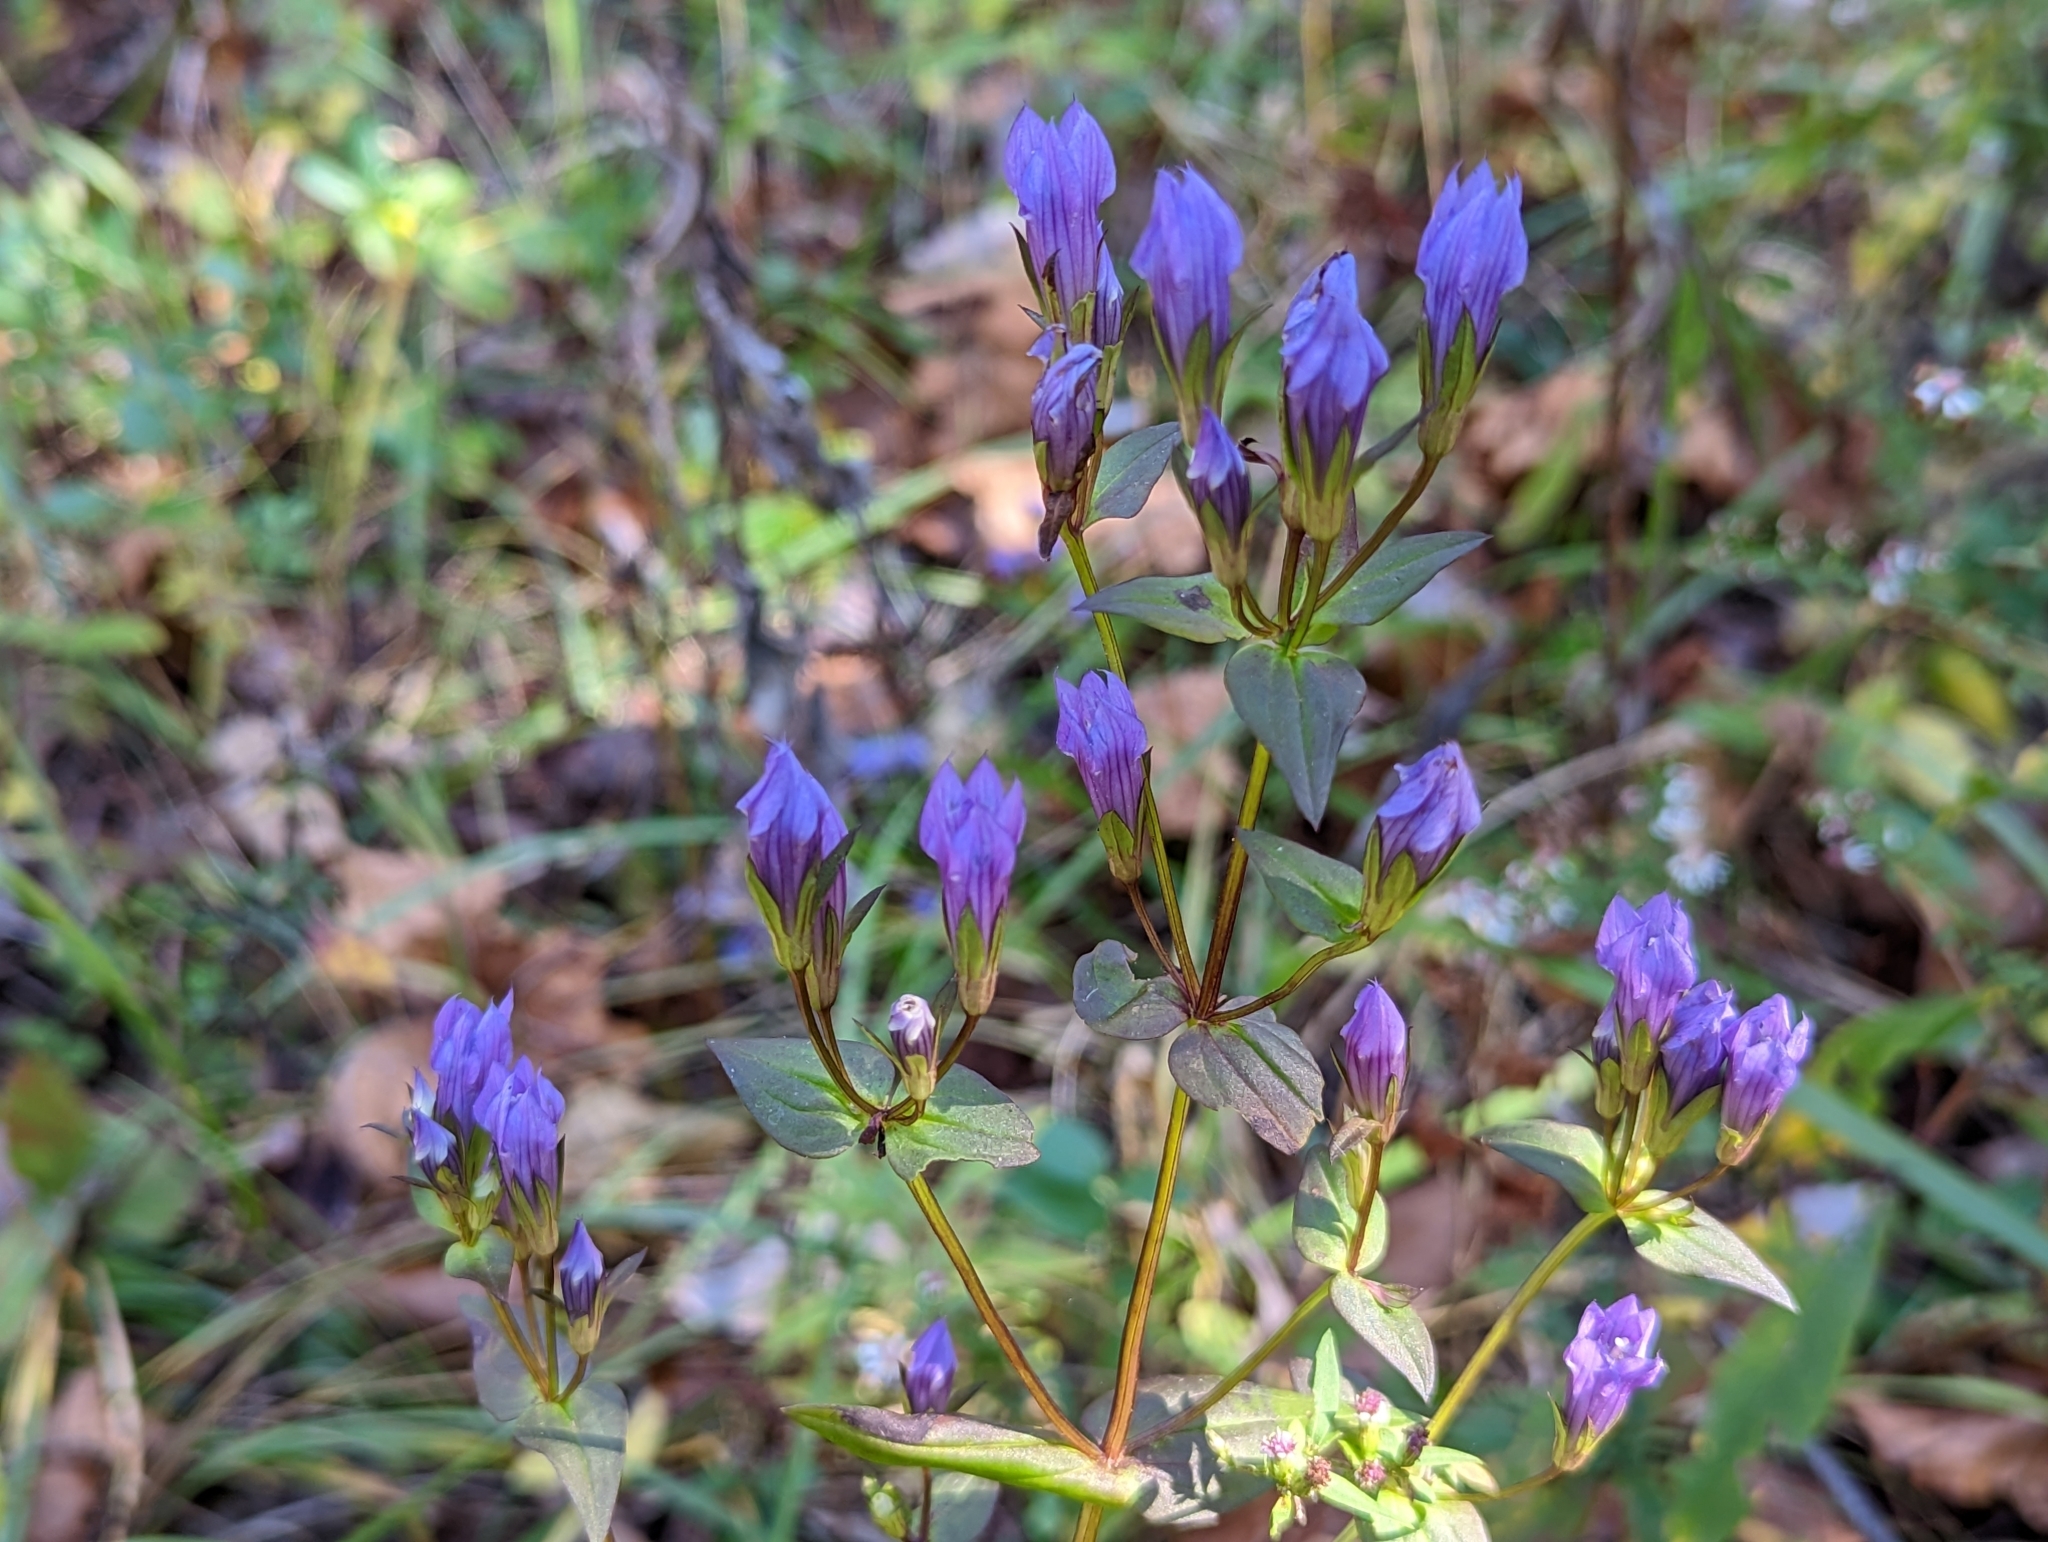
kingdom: Plantae
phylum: Tracheophyta
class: Magnoliopsida
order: Gentianales
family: Gentianaceae
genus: Gentianella
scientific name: Gentianella quinquefolia
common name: Agueweed
